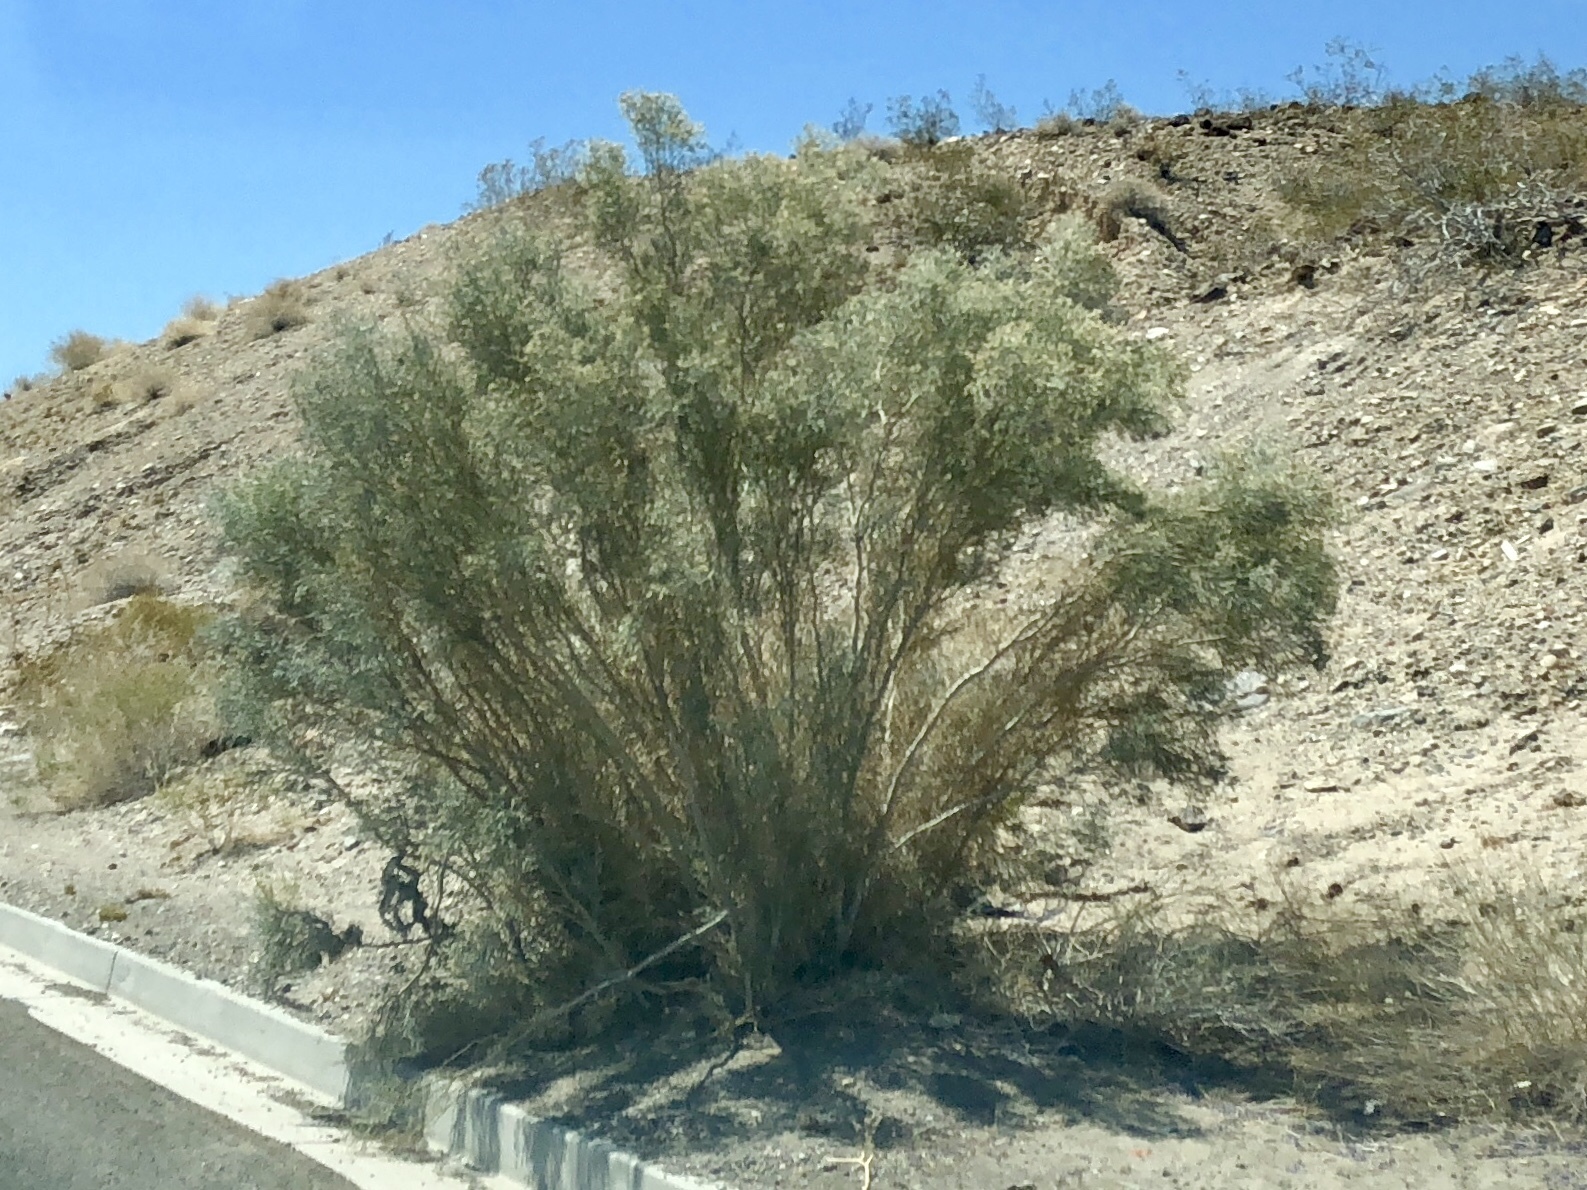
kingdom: Plantae
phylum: Tracheophyta
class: Magnoliopsida
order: Fabales
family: Fabaceae
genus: Psorothamnus
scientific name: Psorothamnus spinosus
